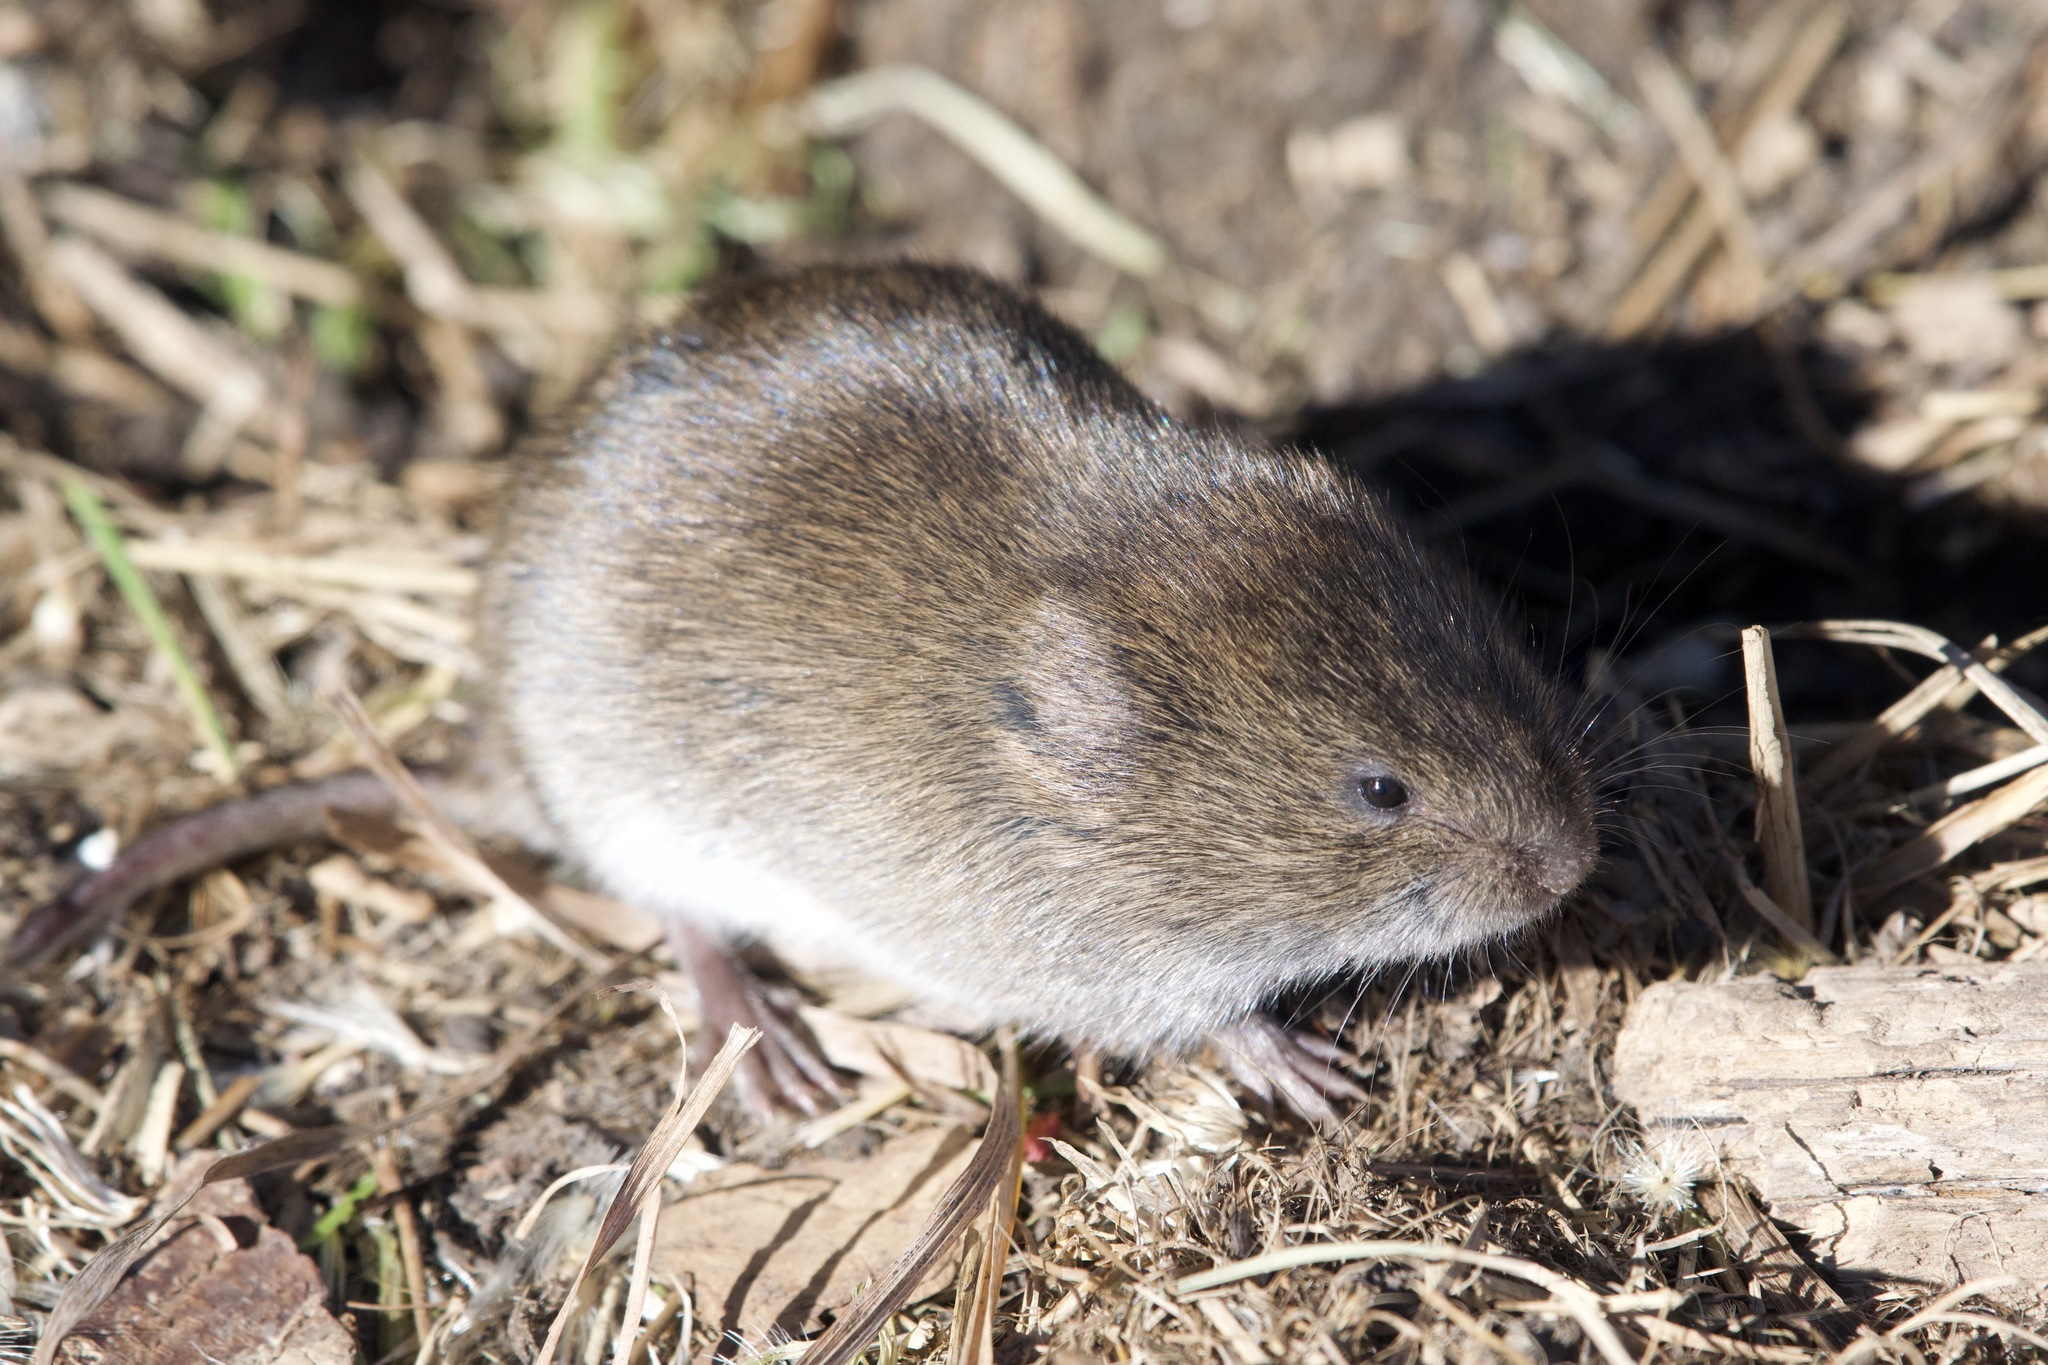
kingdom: Animalia
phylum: Chordata
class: Mammalia
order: Rodentia
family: Cricetidae
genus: Microtus
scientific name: Microtus pennsylvanicus
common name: Meadow vole
